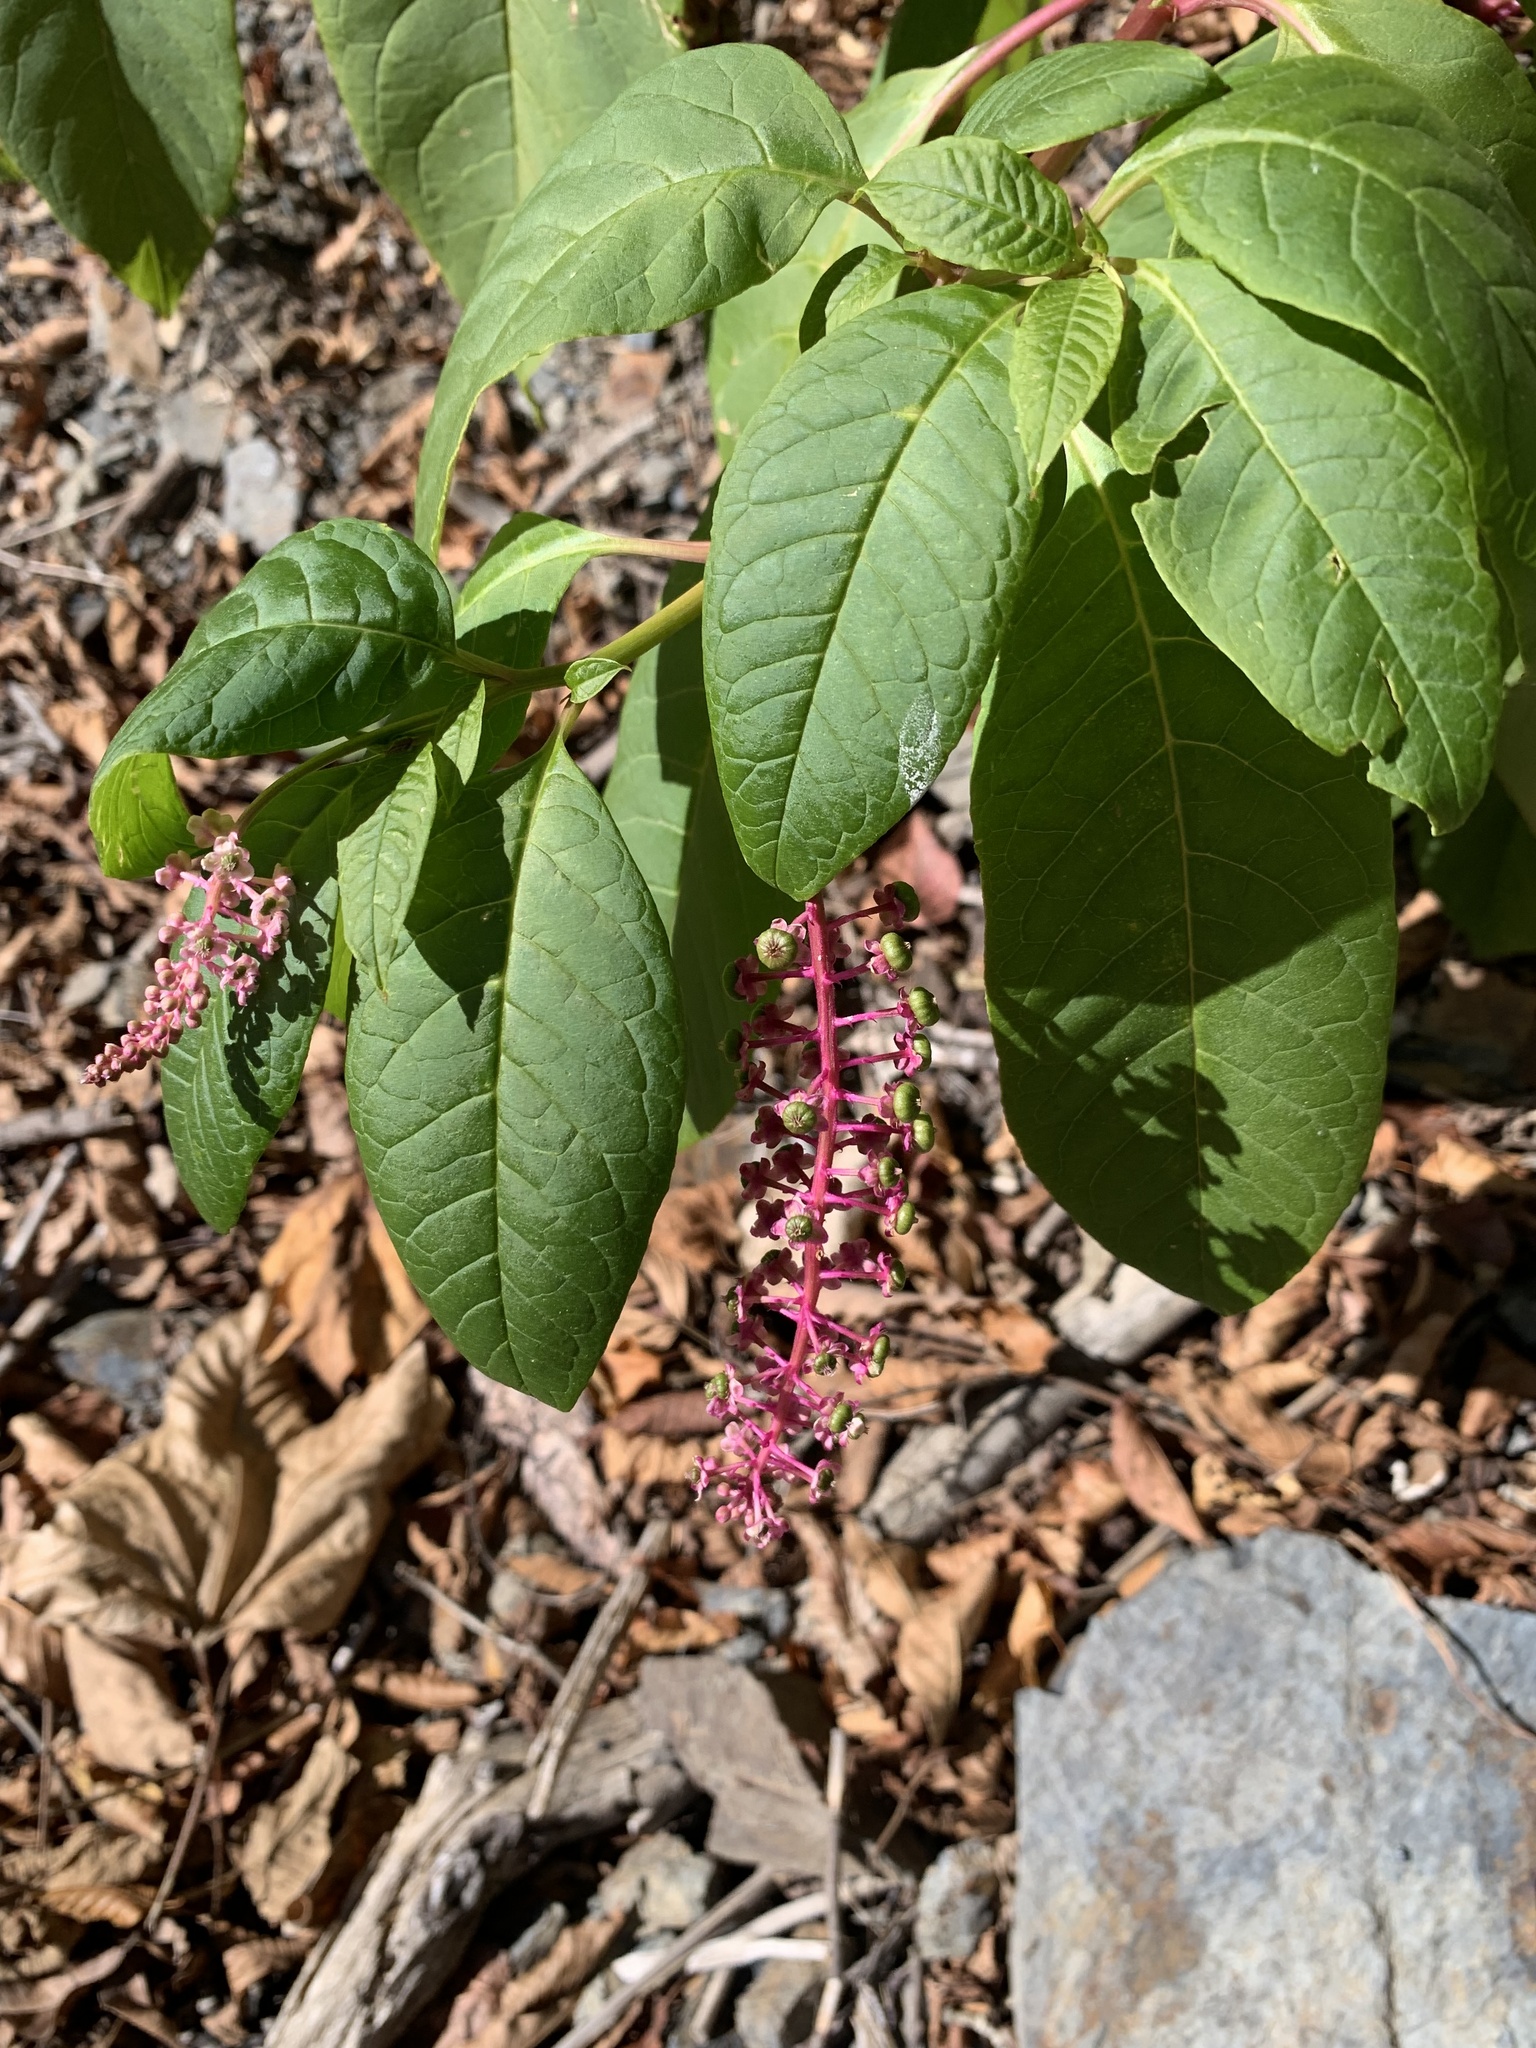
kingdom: Plantae
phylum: Tracheophyta
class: Magnoliopsida
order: Caryophyllales
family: Phytolaccaceae
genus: Phytolacca
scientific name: Phytolacca americana
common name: American pokeweed
